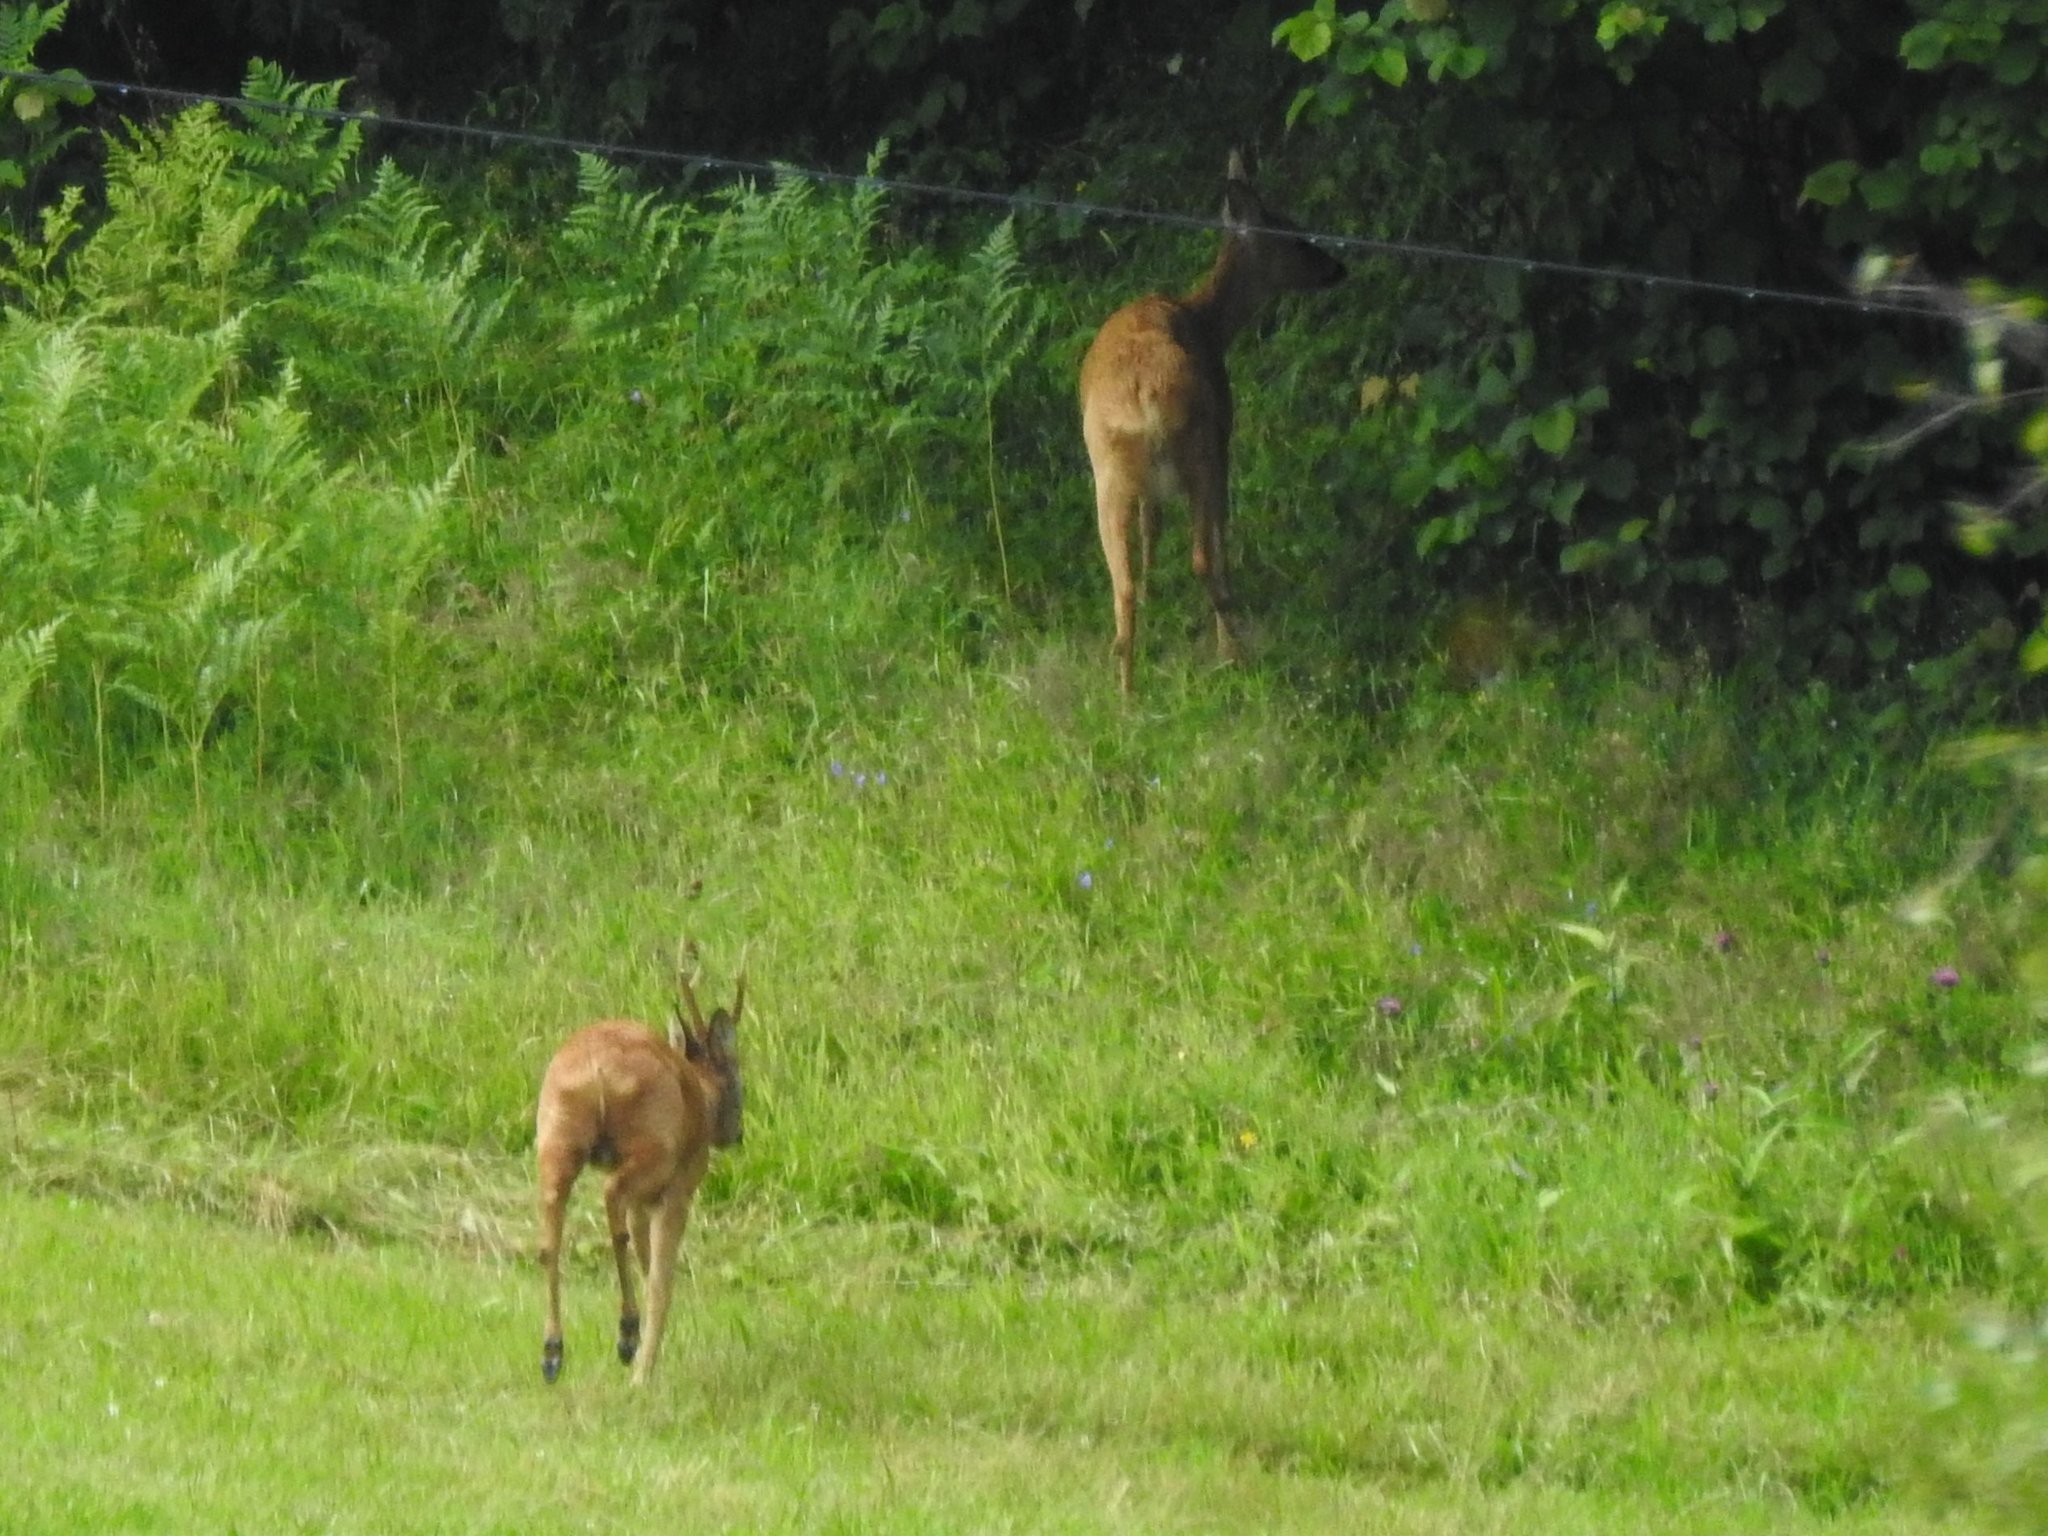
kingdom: Animalia
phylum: Chordata
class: Mammalia
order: Artiodactyla
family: Cervidae
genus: Capreolus
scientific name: Capreolus capreolus
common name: Western roe deer
